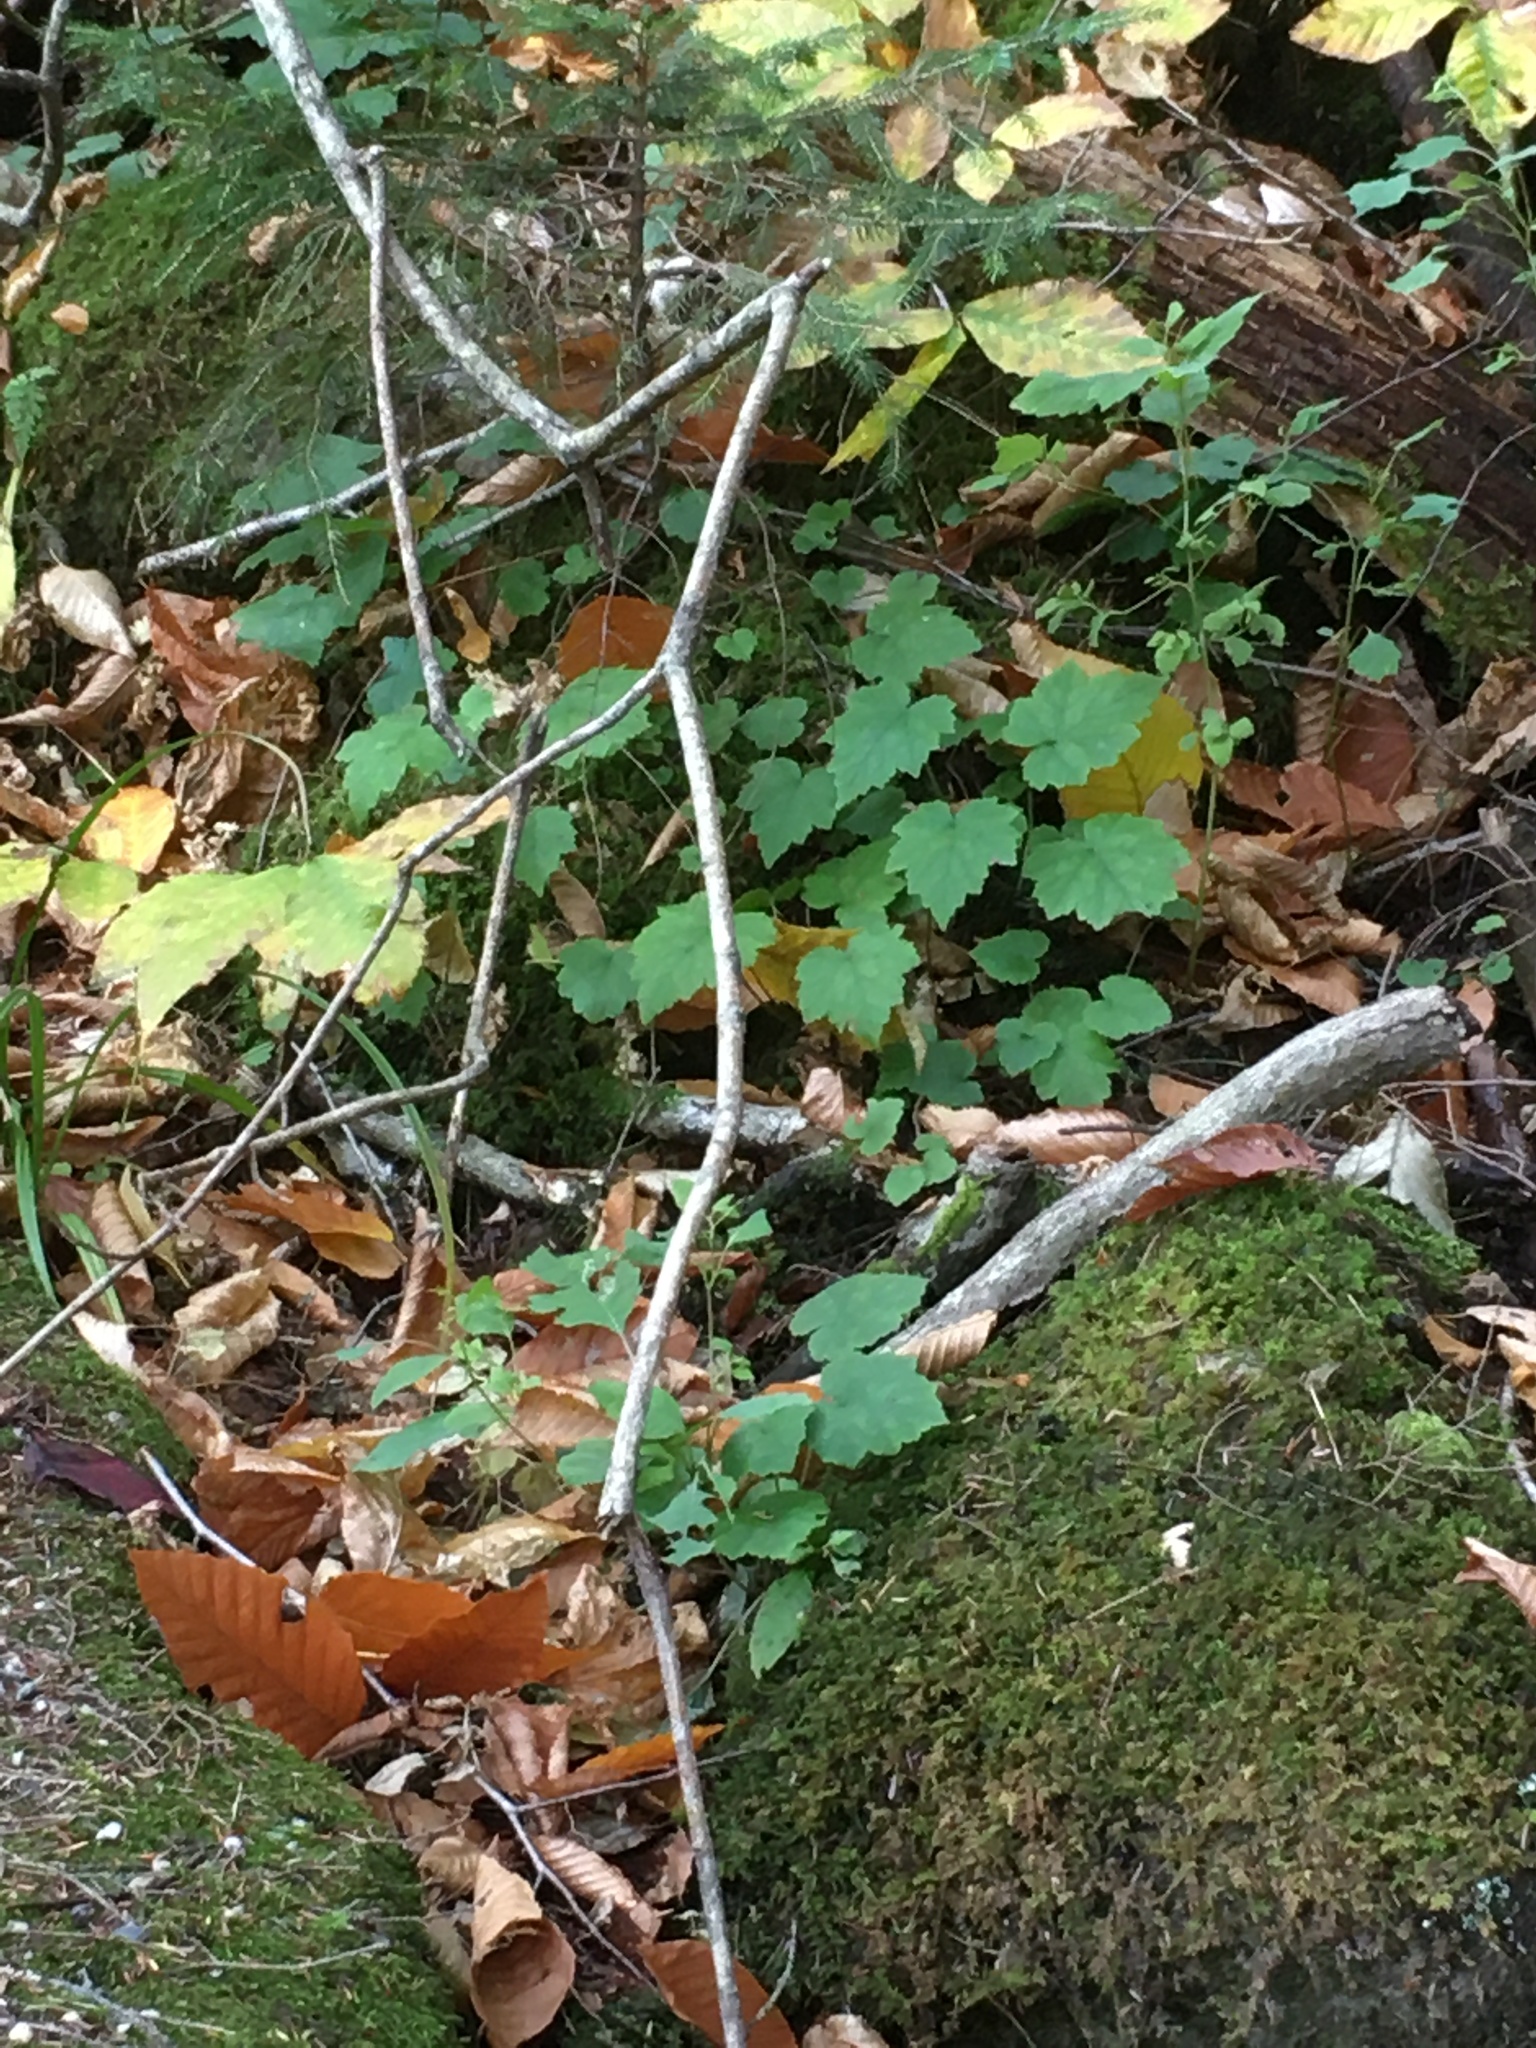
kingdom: Plantae
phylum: Tracheophyta
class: Magnoliopsida
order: Saxifragales
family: Saxifragaceae
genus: Tiarella
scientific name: Tiarella stolonifera
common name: Stoloniferous foamflower
